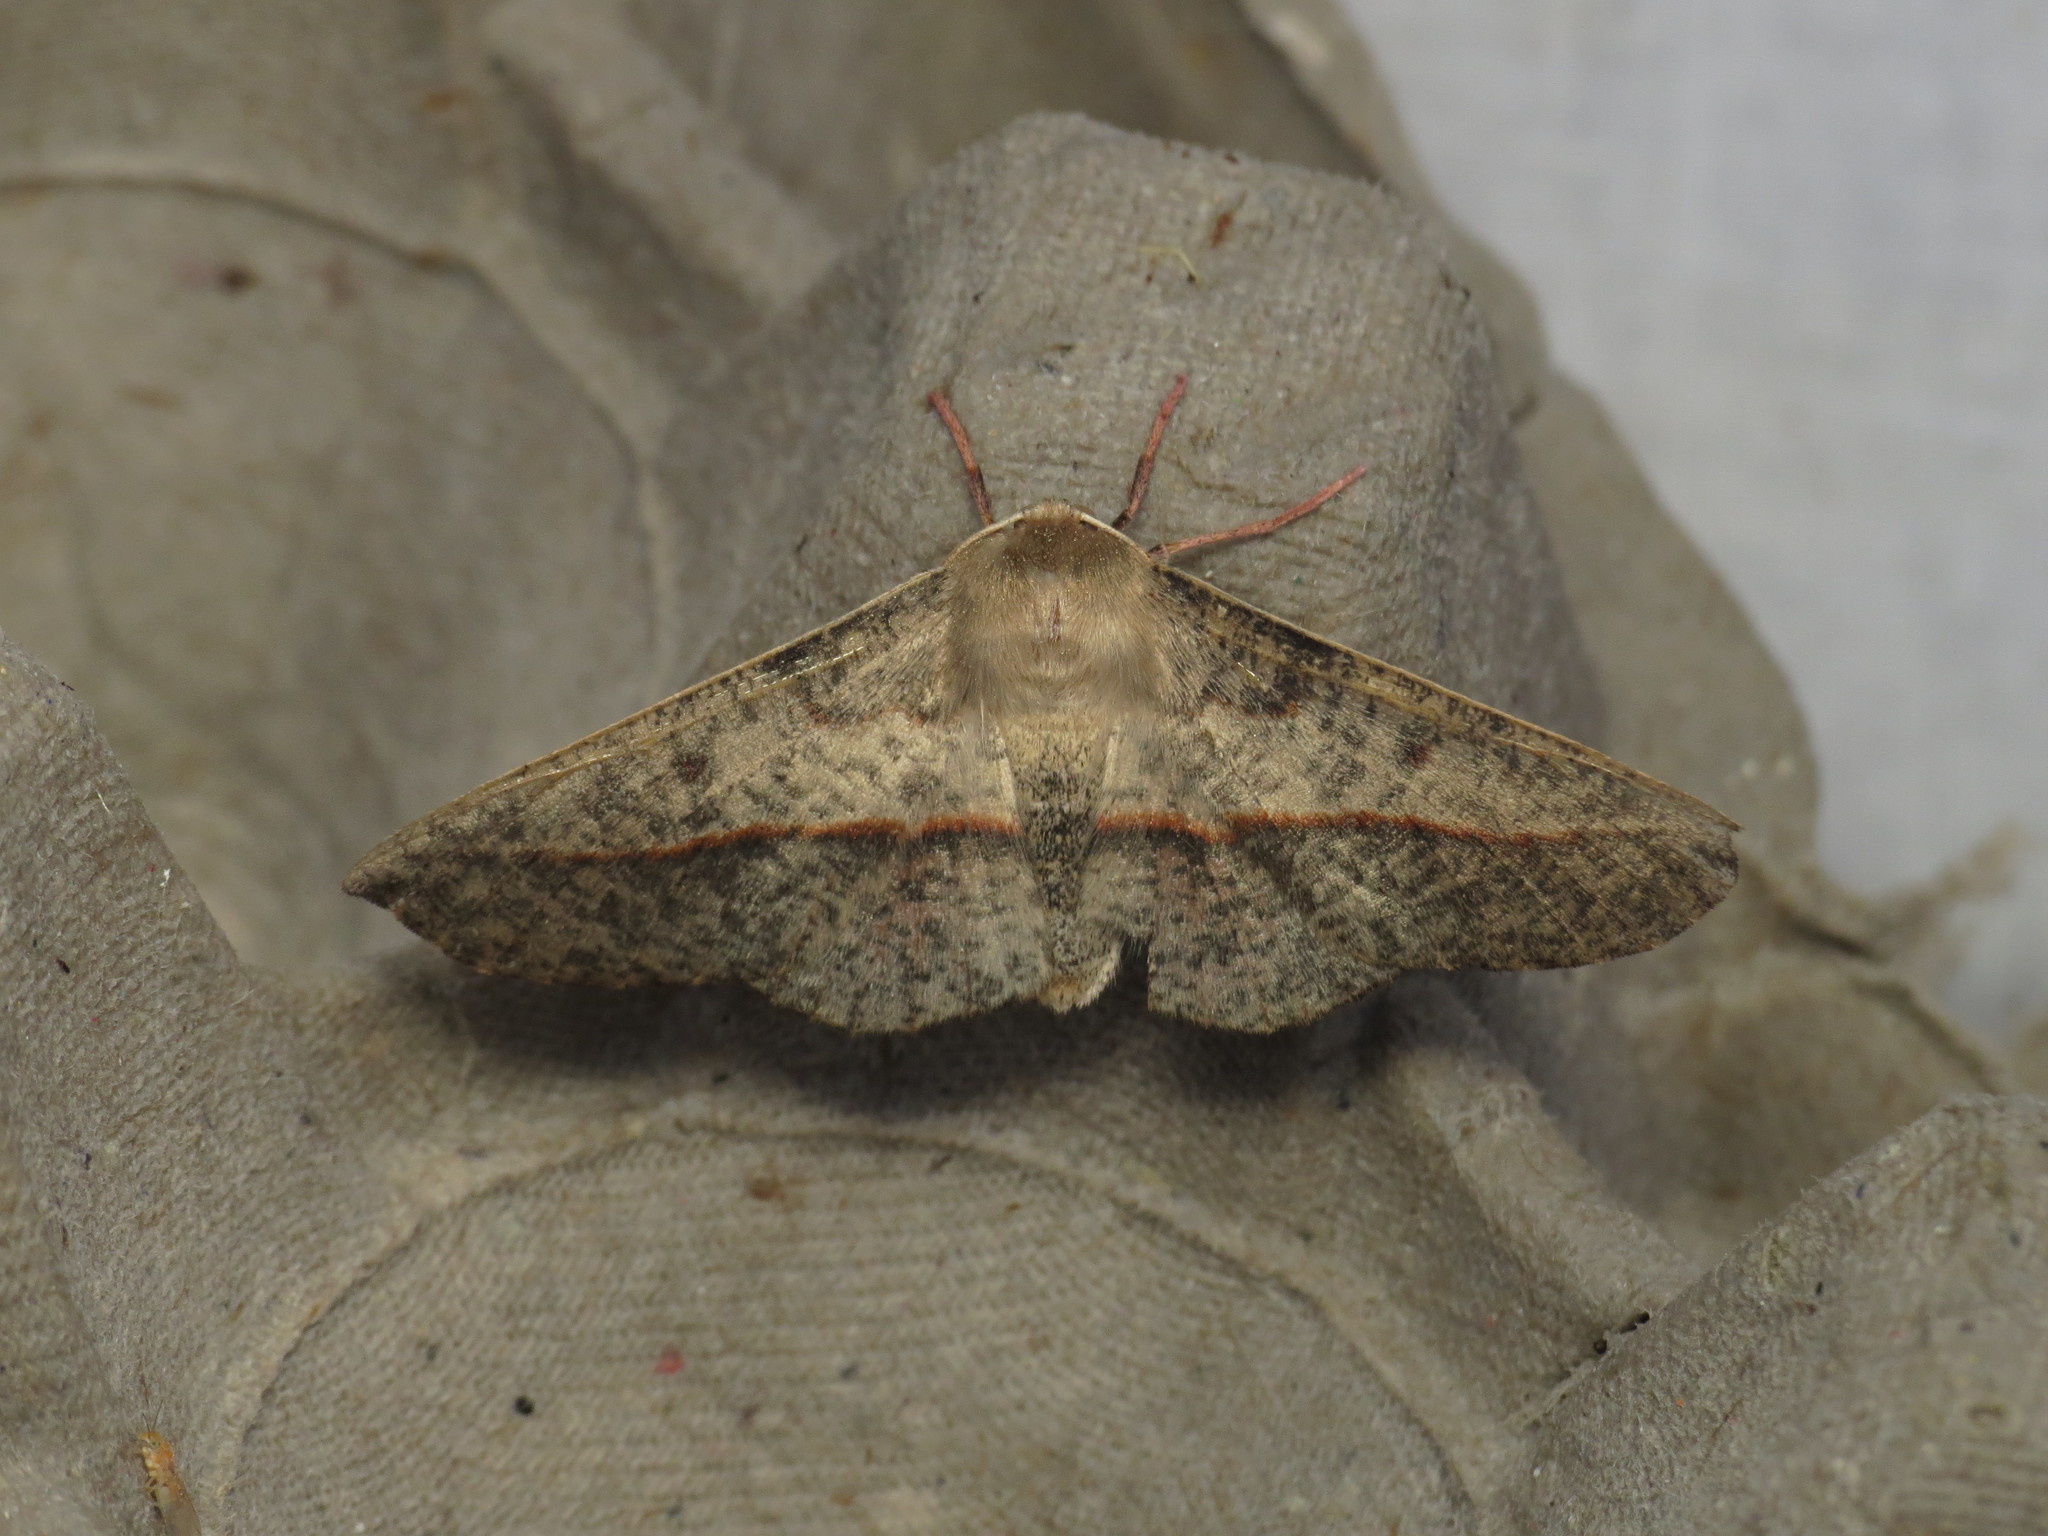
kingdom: Animalia
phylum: Arthropoda
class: Insecta
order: Lepidoptera
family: Geometridae
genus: Antictenia
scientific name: Antictenia punctunculus
